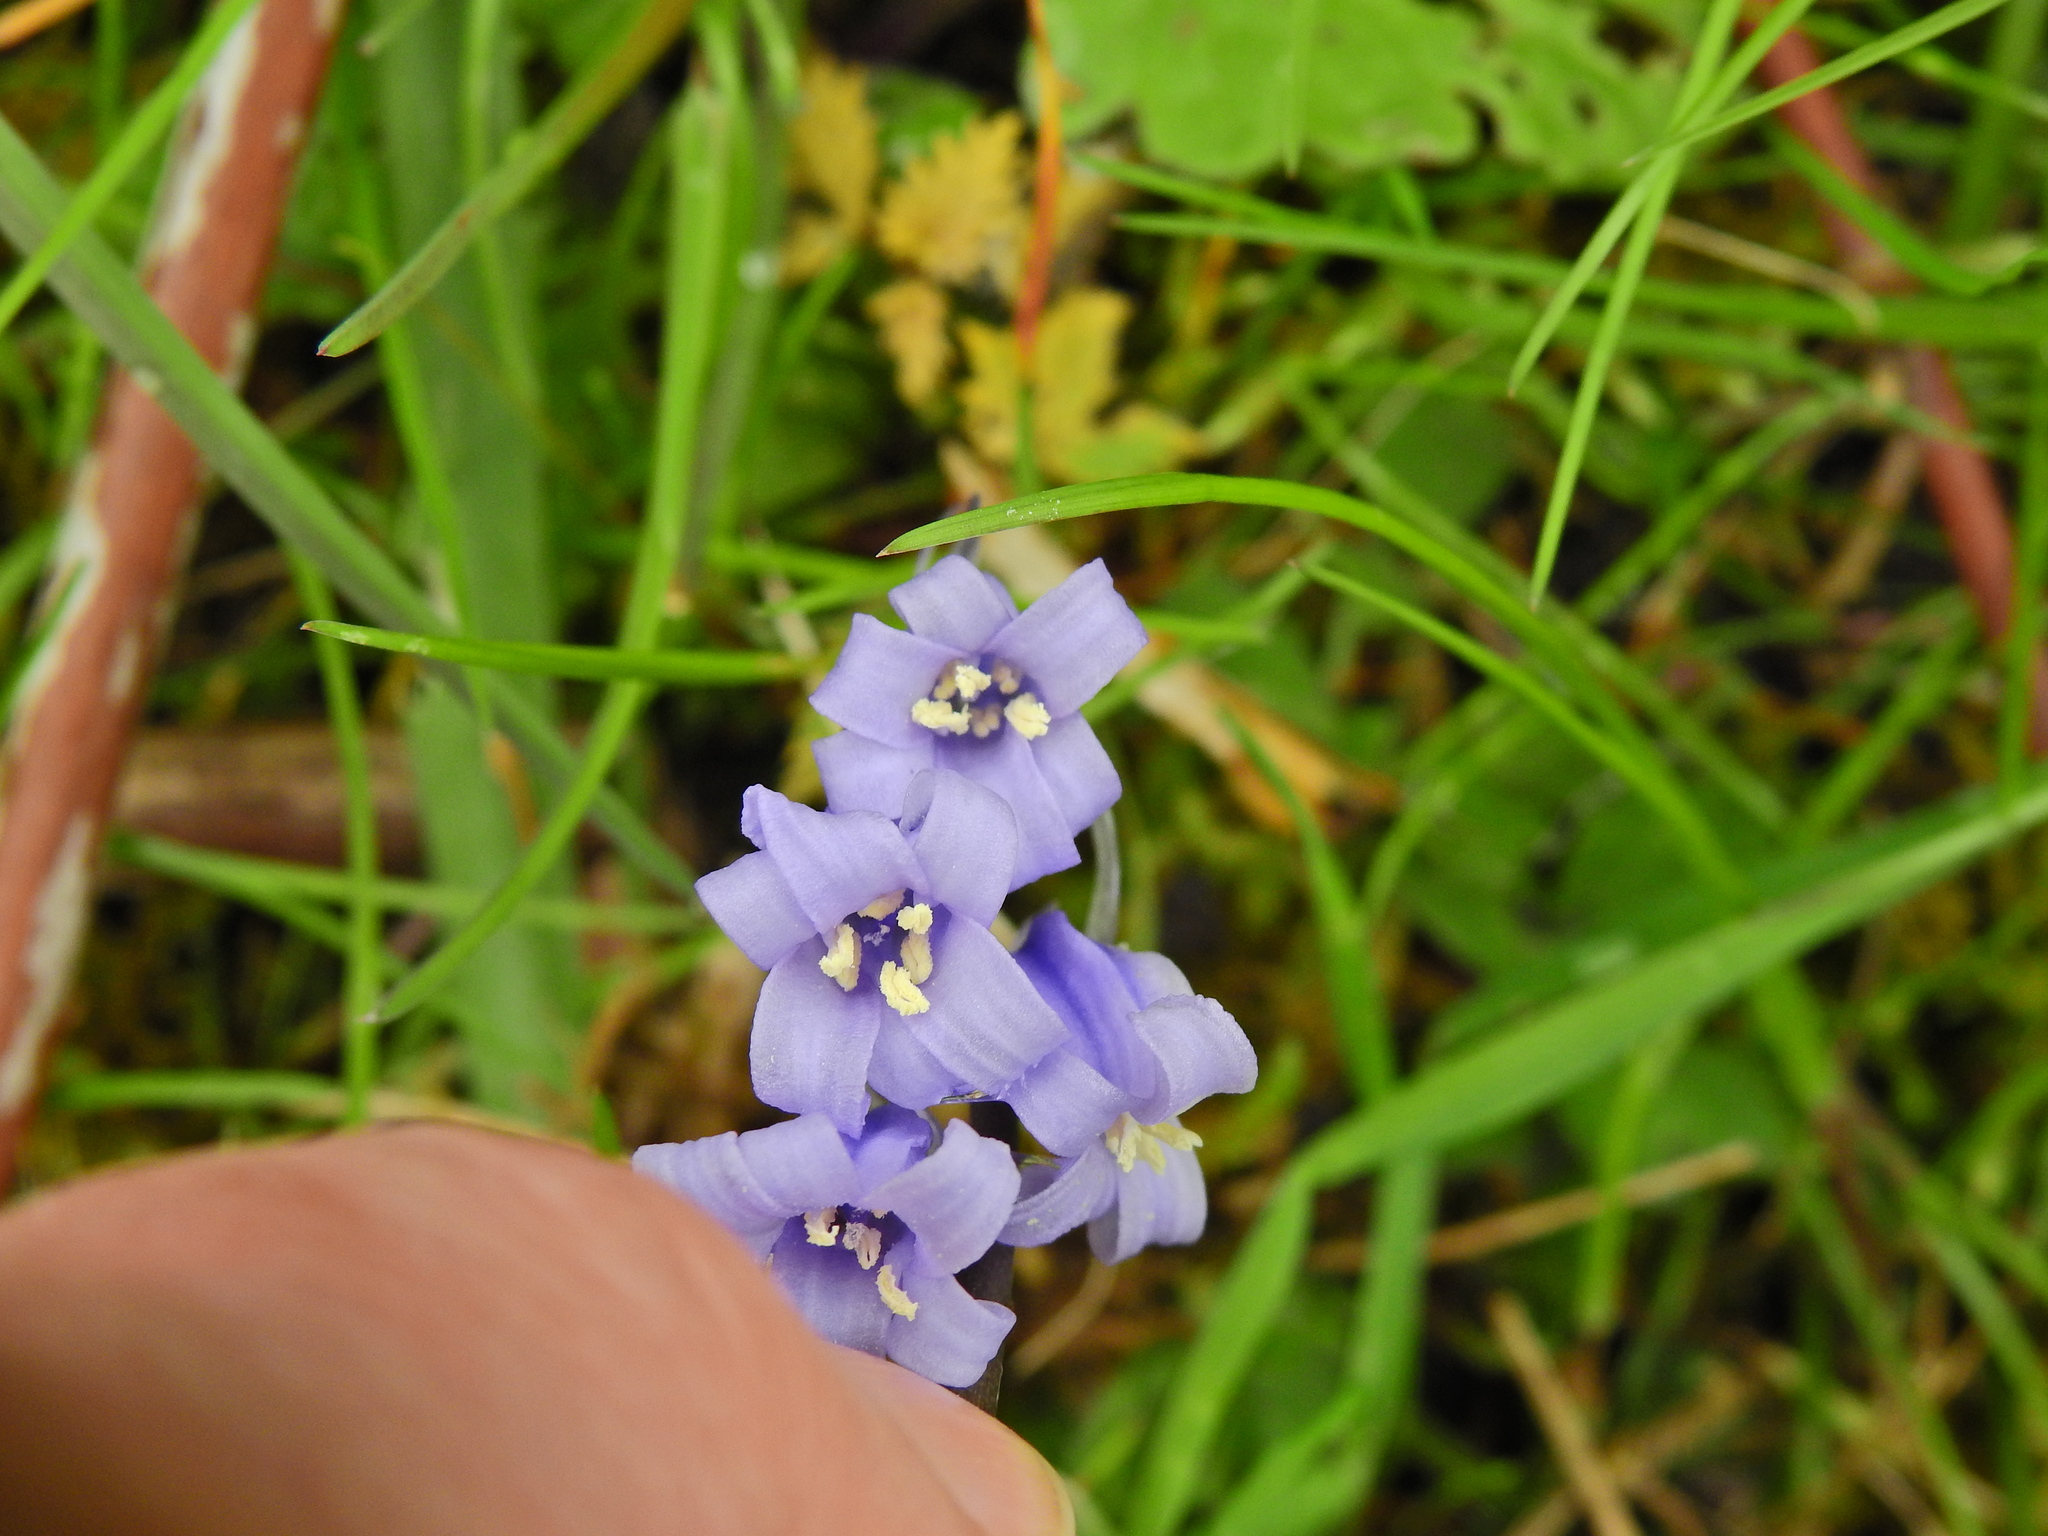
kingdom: Plantae
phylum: Tracheophyta
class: Liliopsida
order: Asparagales
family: Asparagaceae
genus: Hyacinthoides
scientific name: Hyacinthoides non-scripta
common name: Bluebell
